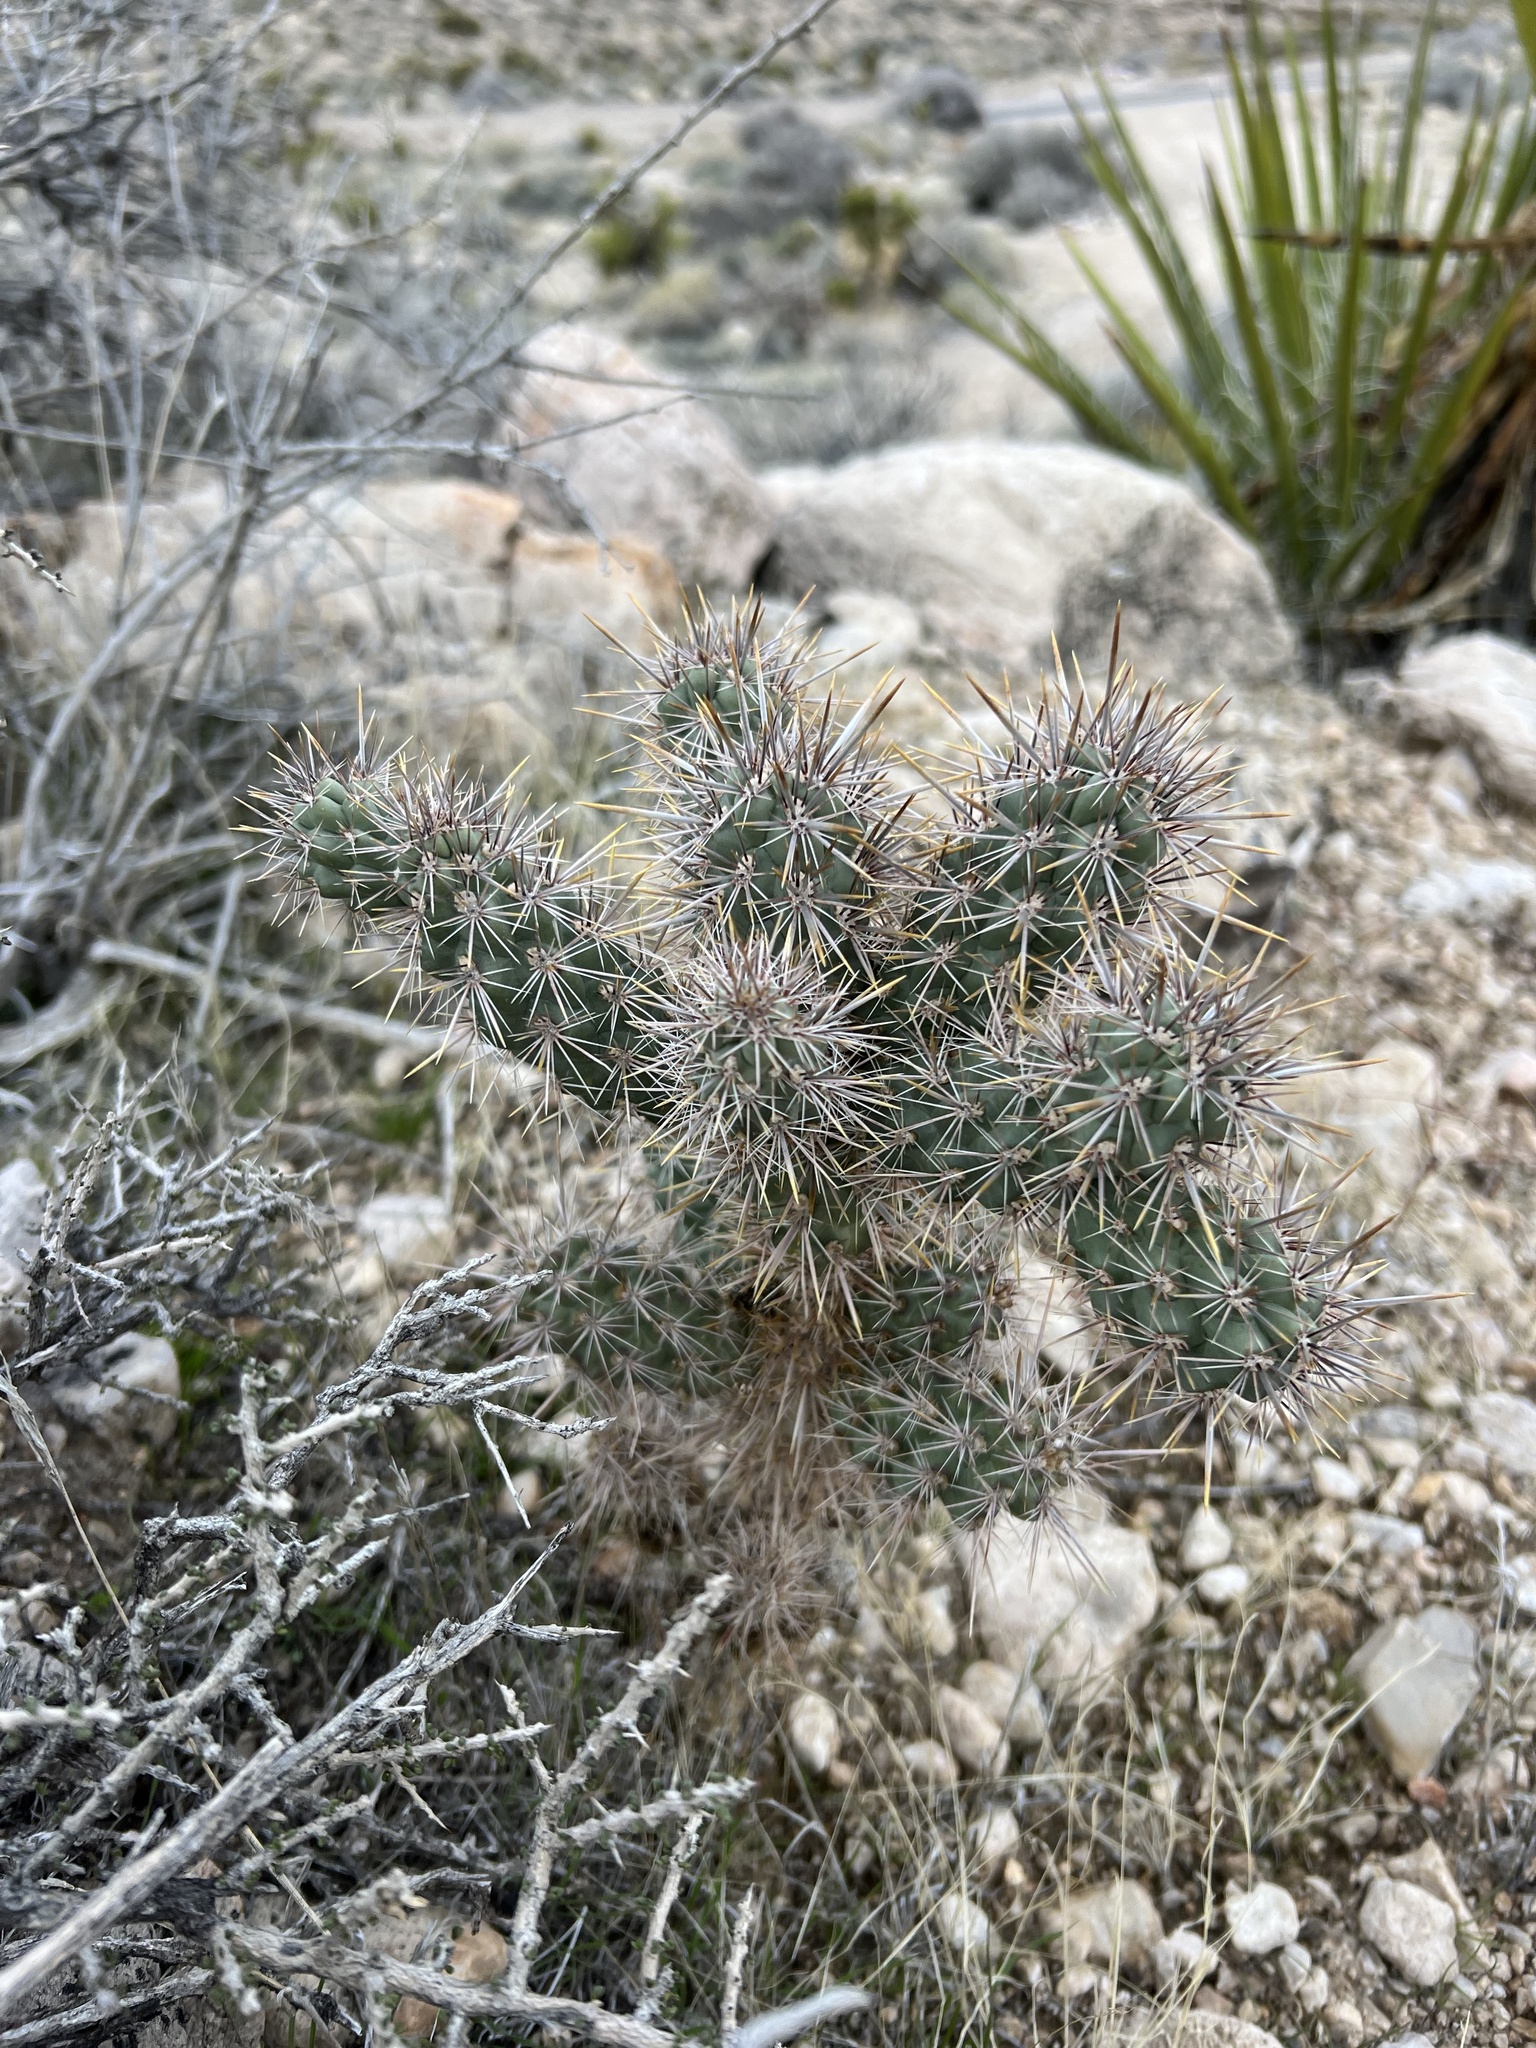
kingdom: Plantae
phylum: Tracheophyta
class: Magnoliopsida
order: Caryophyllales
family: Cactaceae
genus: Cylindropuntia
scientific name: Cylindropuntia echinocarpa
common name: Ground cholla
